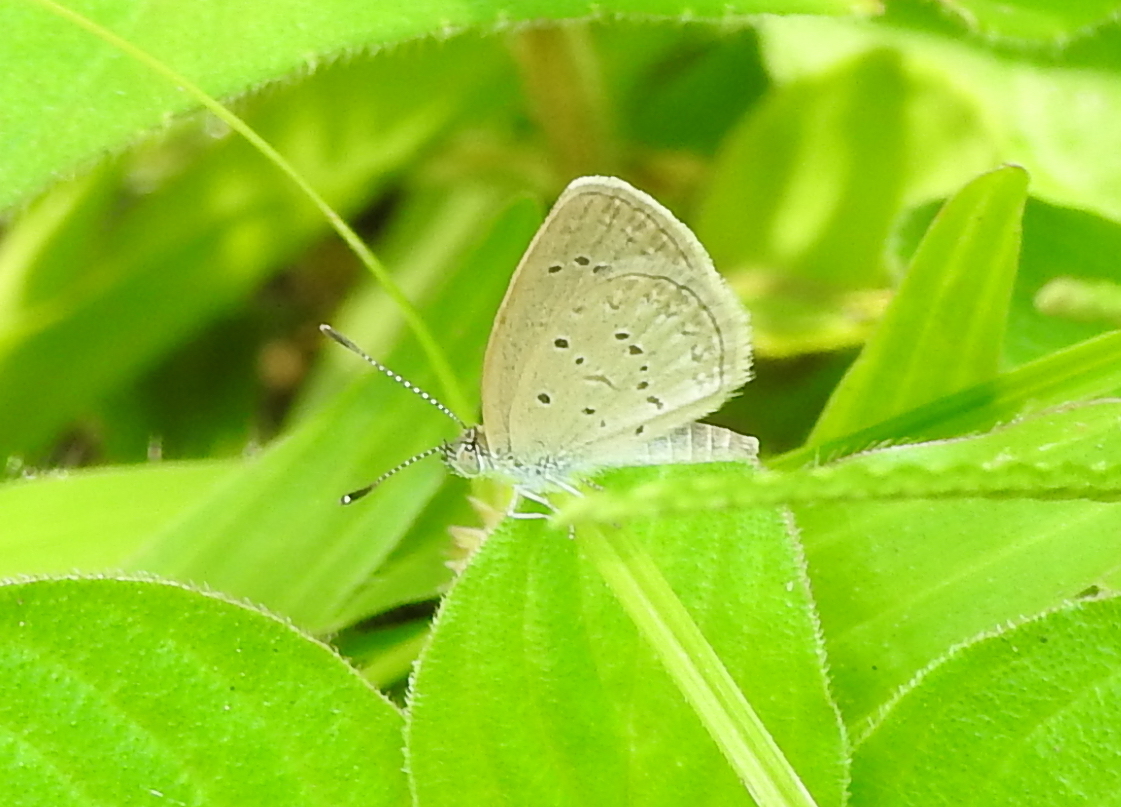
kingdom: Animalia
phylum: Arthropoda
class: Insecta
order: Lepidoptera
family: Lycaenidae
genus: Zizina
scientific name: Zizina otis
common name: Lesser grass blue
